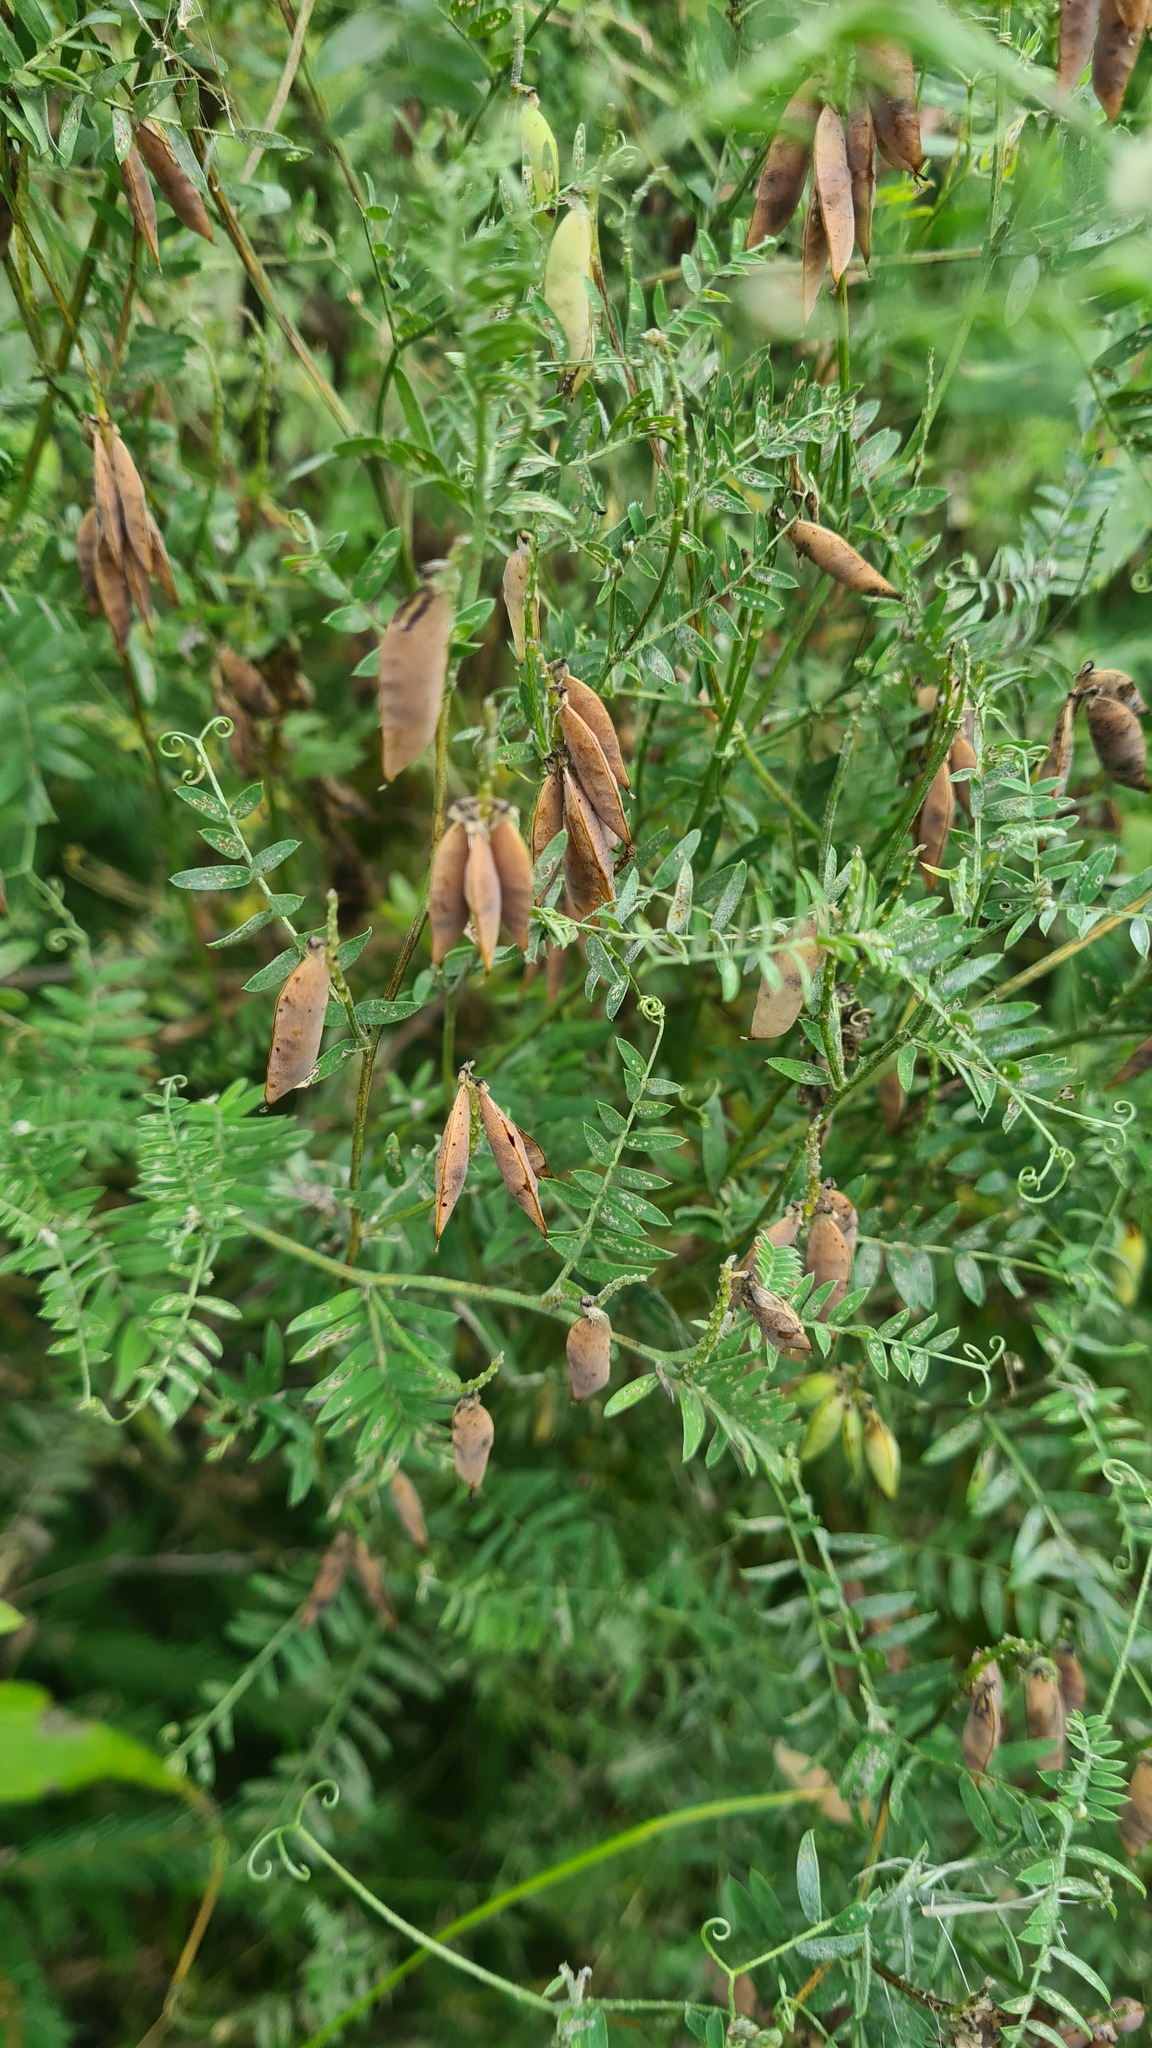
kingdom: Plantae
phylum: Tracheophyta
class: Magnoliopsida
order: Fabales
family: Fabaceae
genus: Vicia
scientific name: Vicia cracca
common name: Bird vetch
